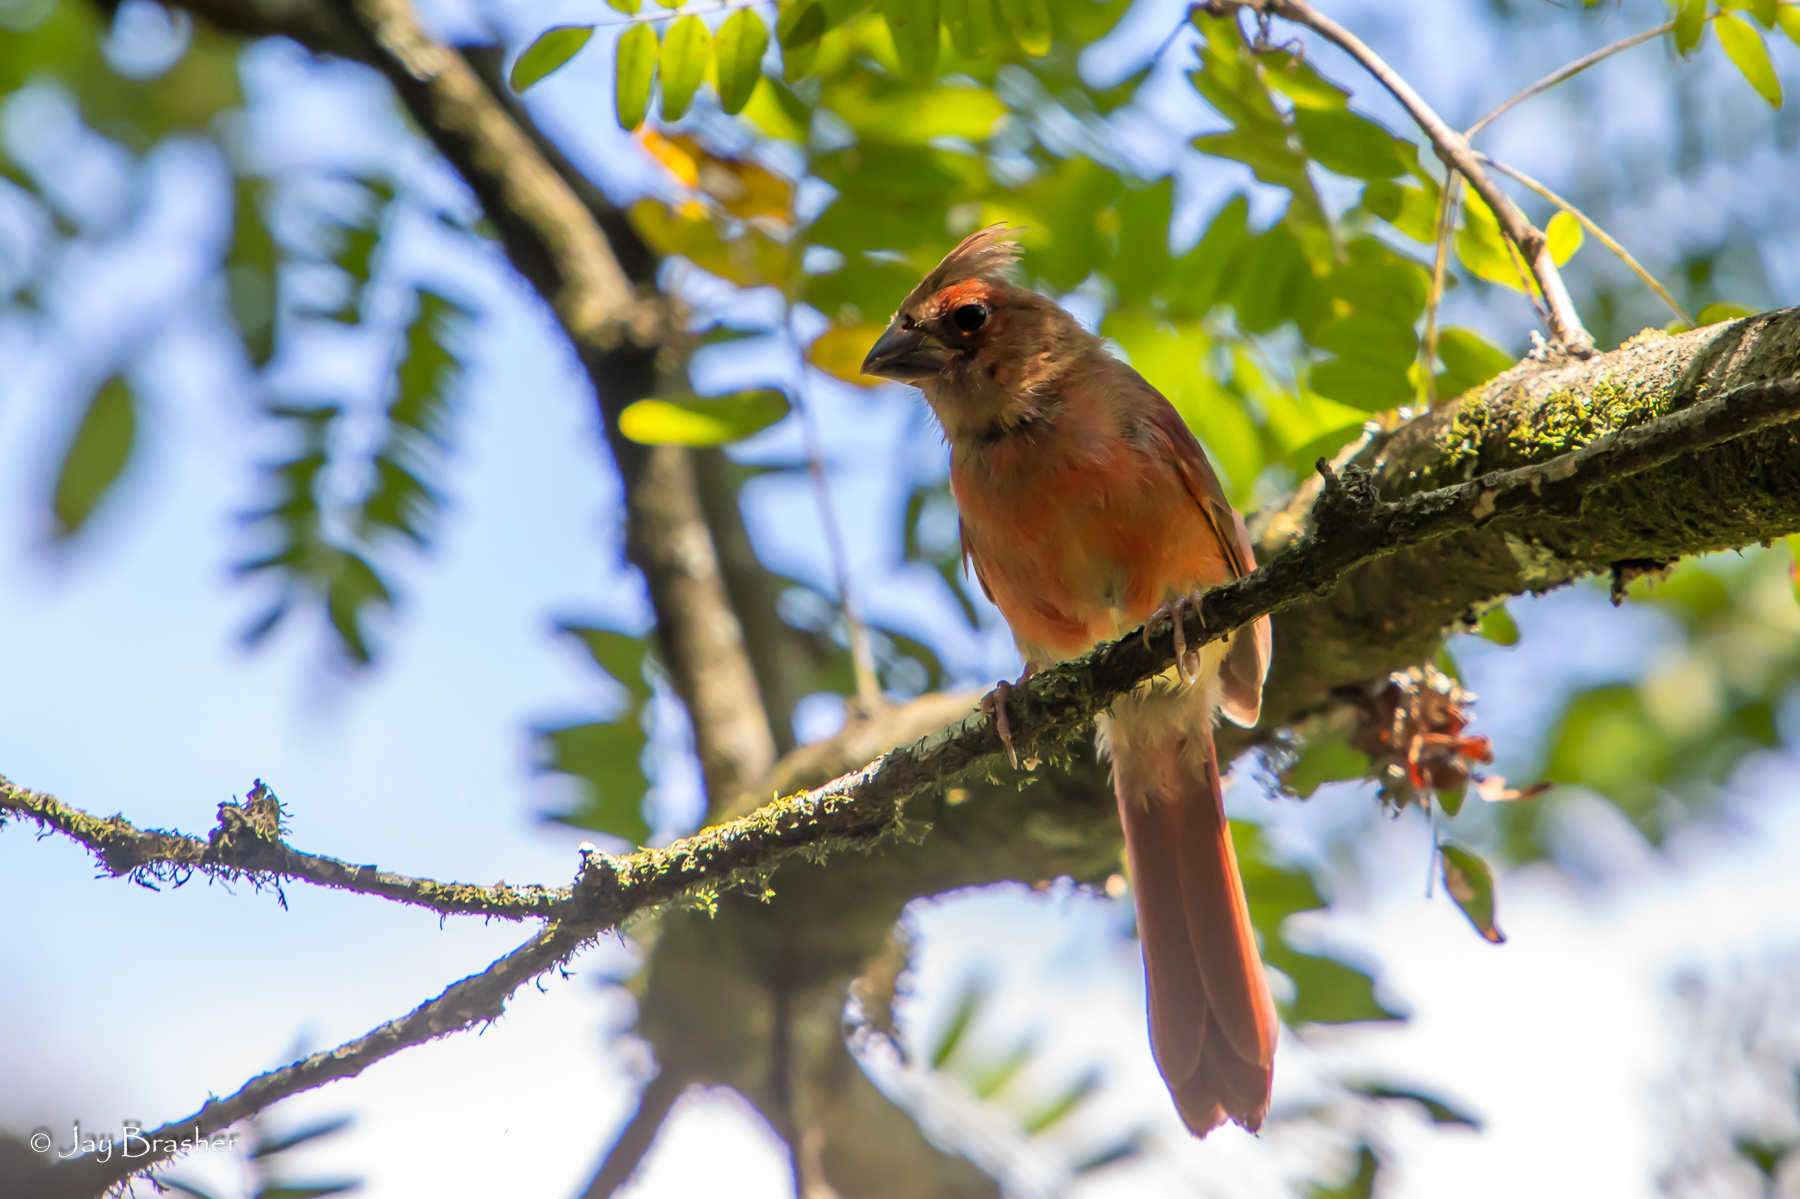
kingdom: Animalia
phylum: Chordata
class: Aves
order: Passeriformes
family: Cardinalidae
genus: Cardinalis
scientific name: Cardinalis cardinalis
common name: Northern cardinal
